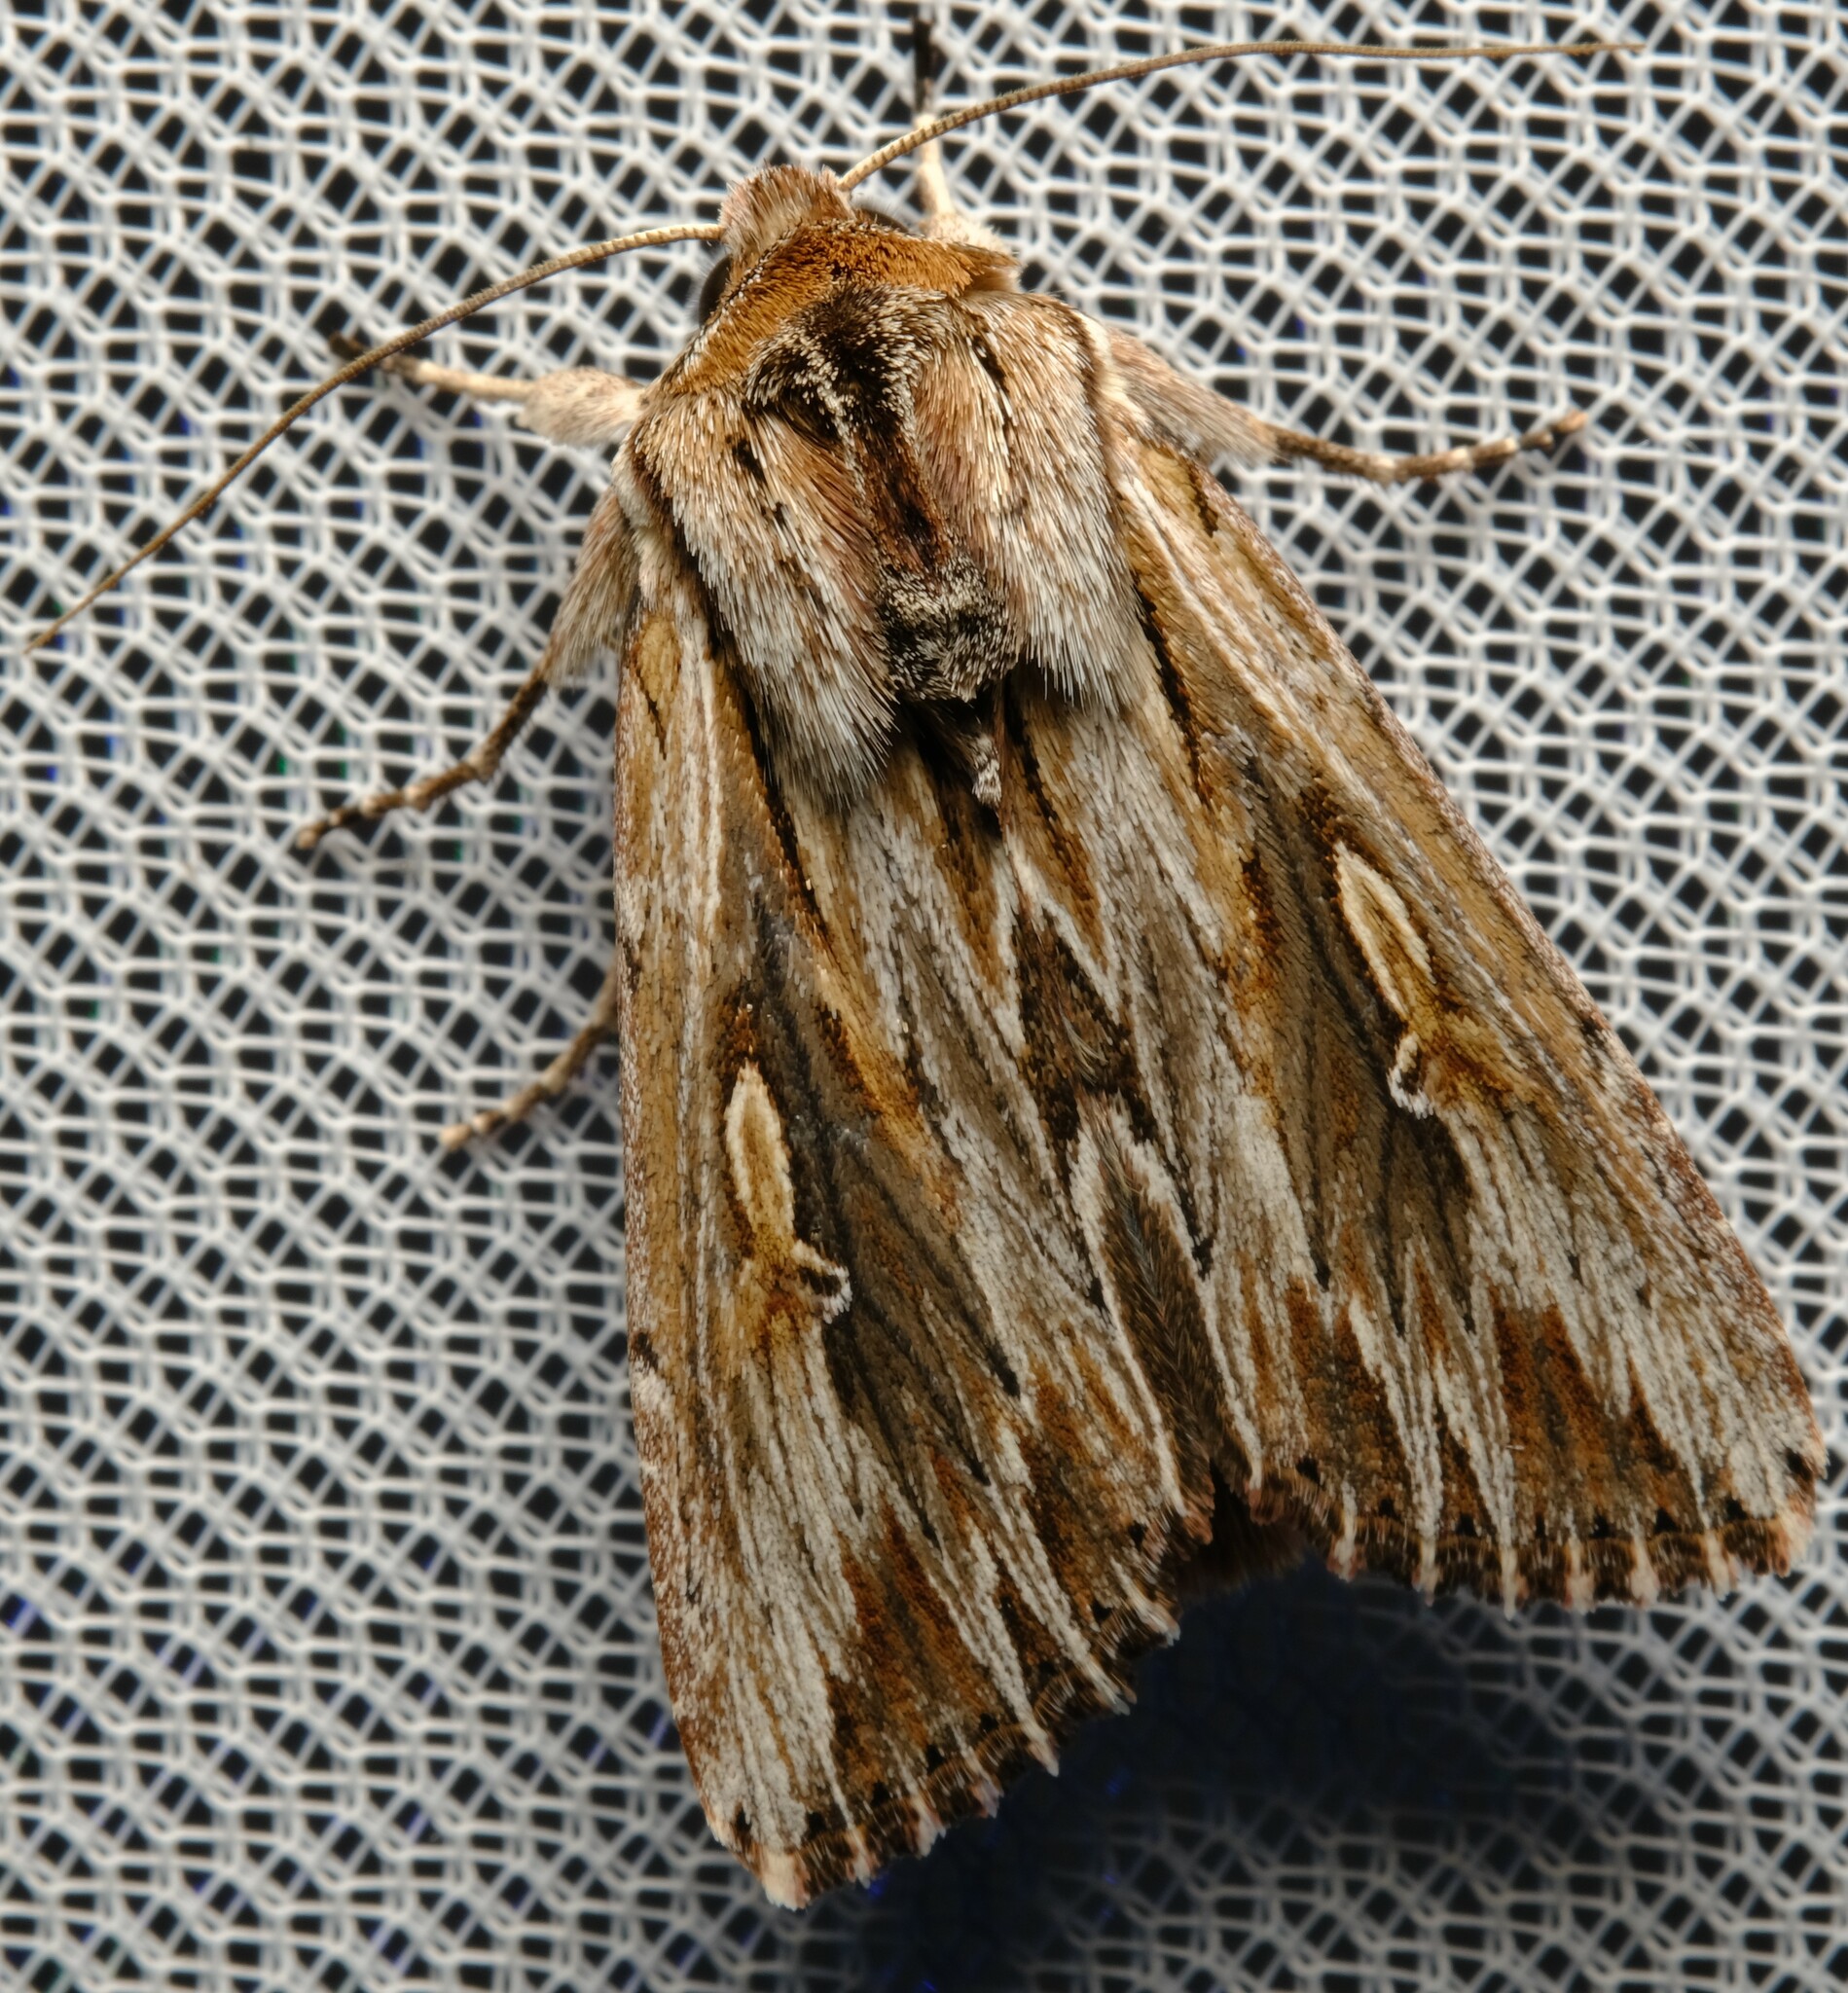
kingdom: Animalia
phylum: Arthropoda
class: Insecta
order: Lepidoptera
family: Noctuidae
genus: Persectania
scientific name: Persectania ewingii
